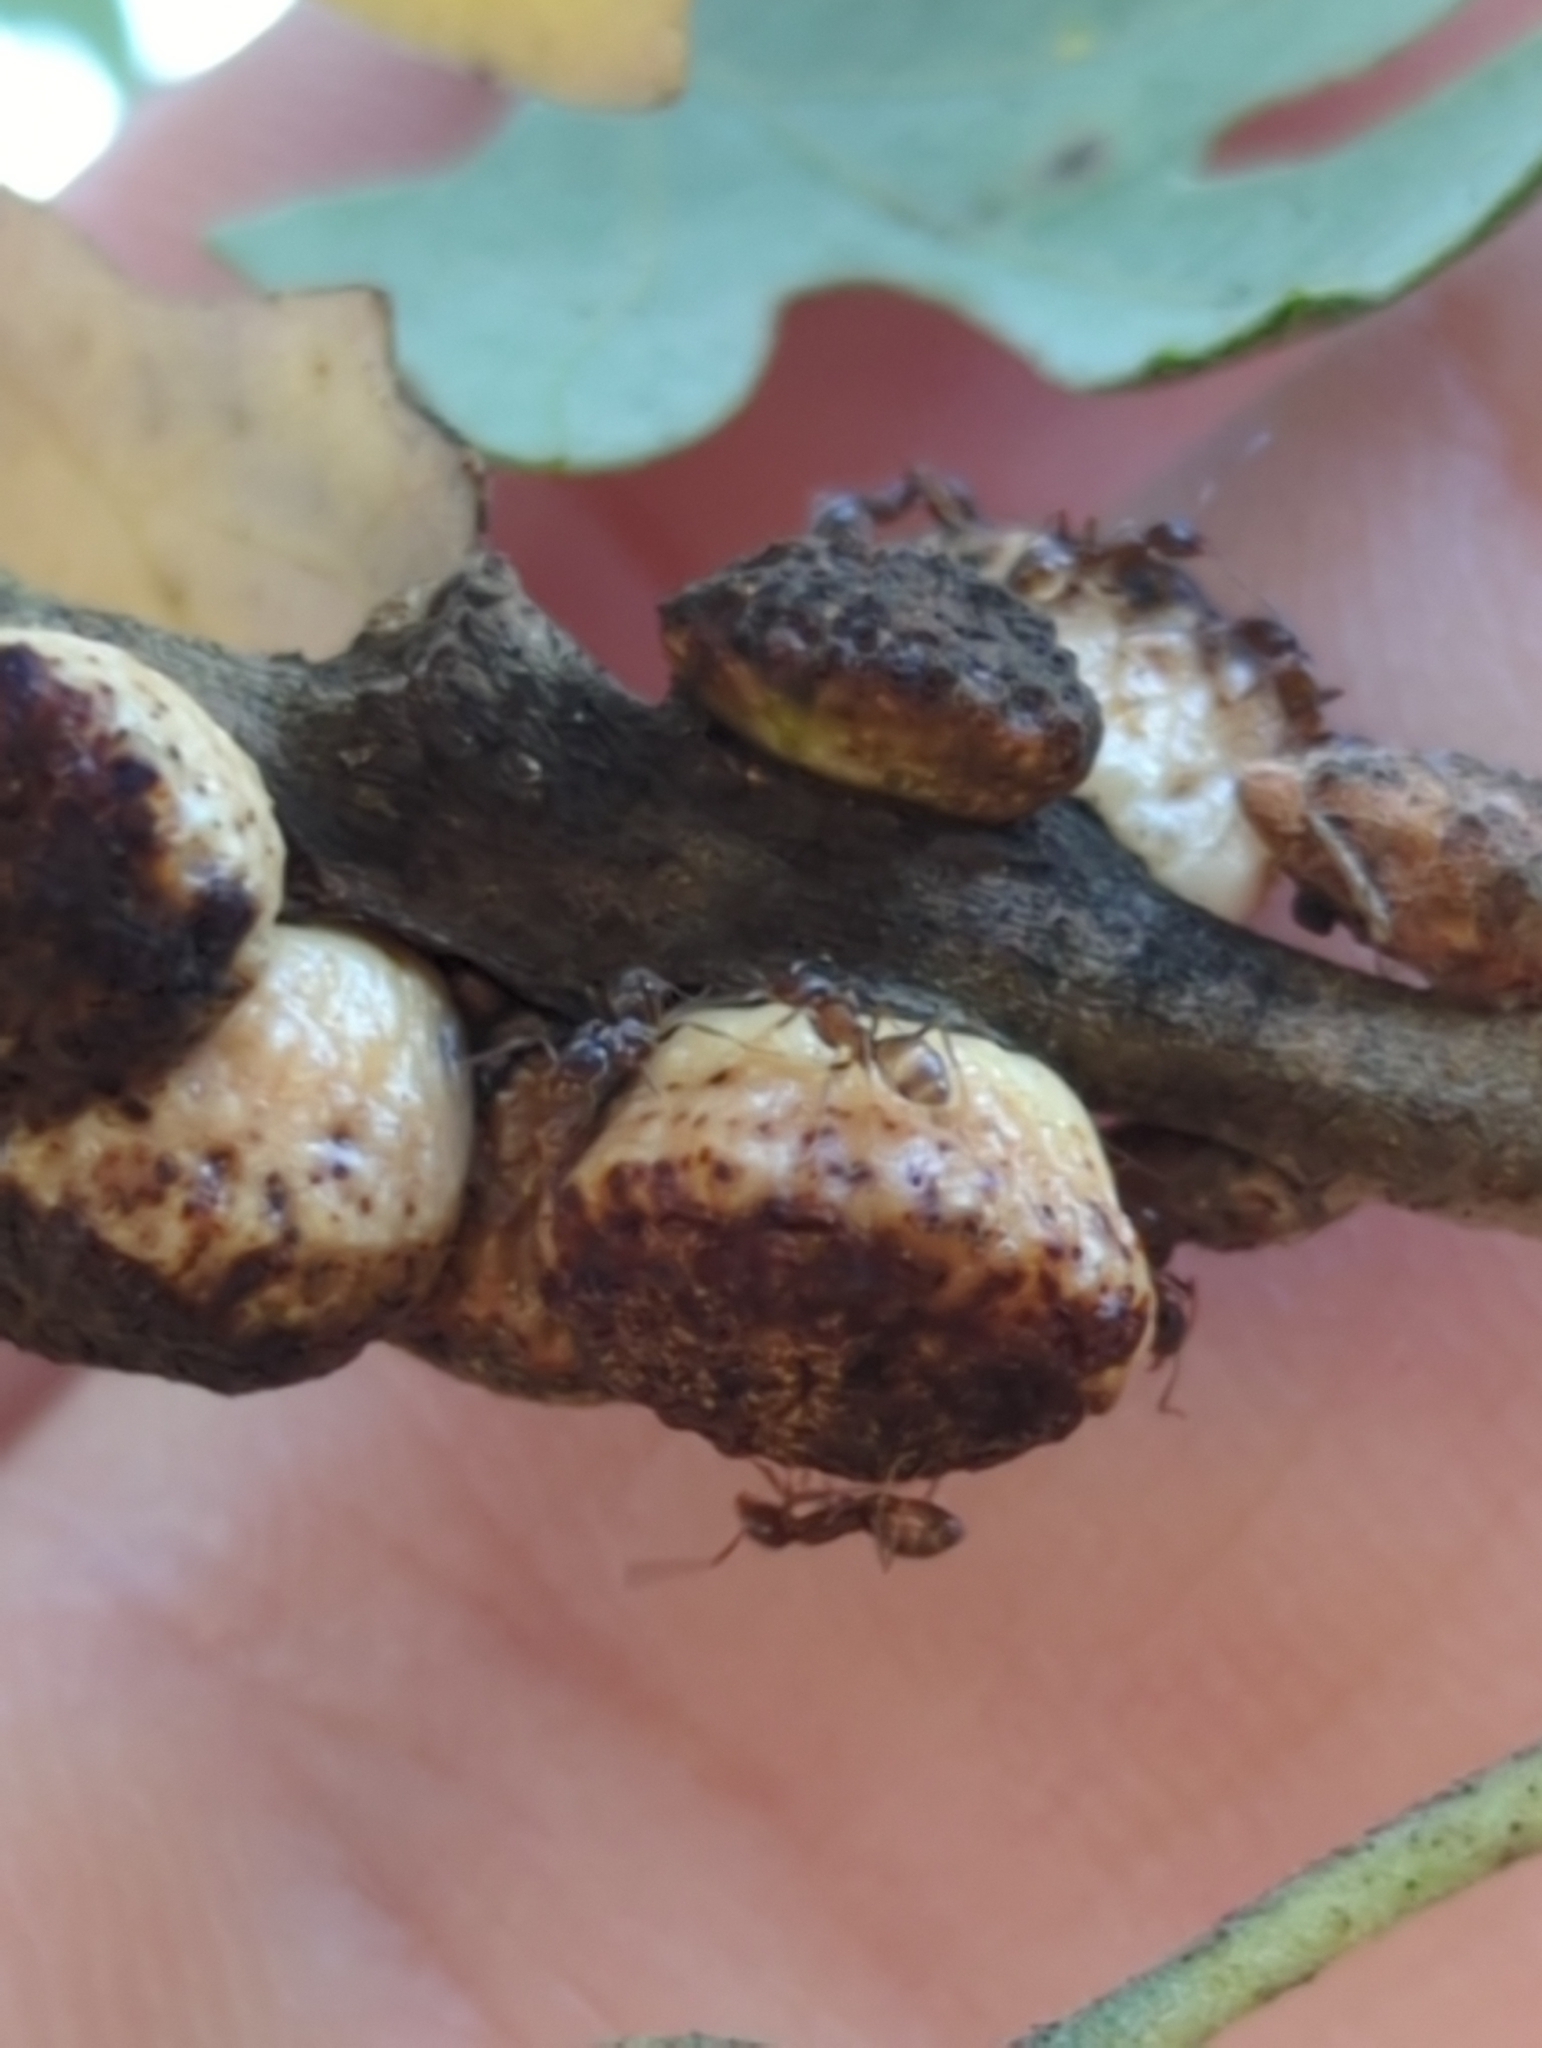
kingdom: Animalia
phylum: Arthropoda
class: Insecta
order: Hymenoptera
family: Cynipidae
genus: Disholcaspis
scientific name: Disholcaspis
